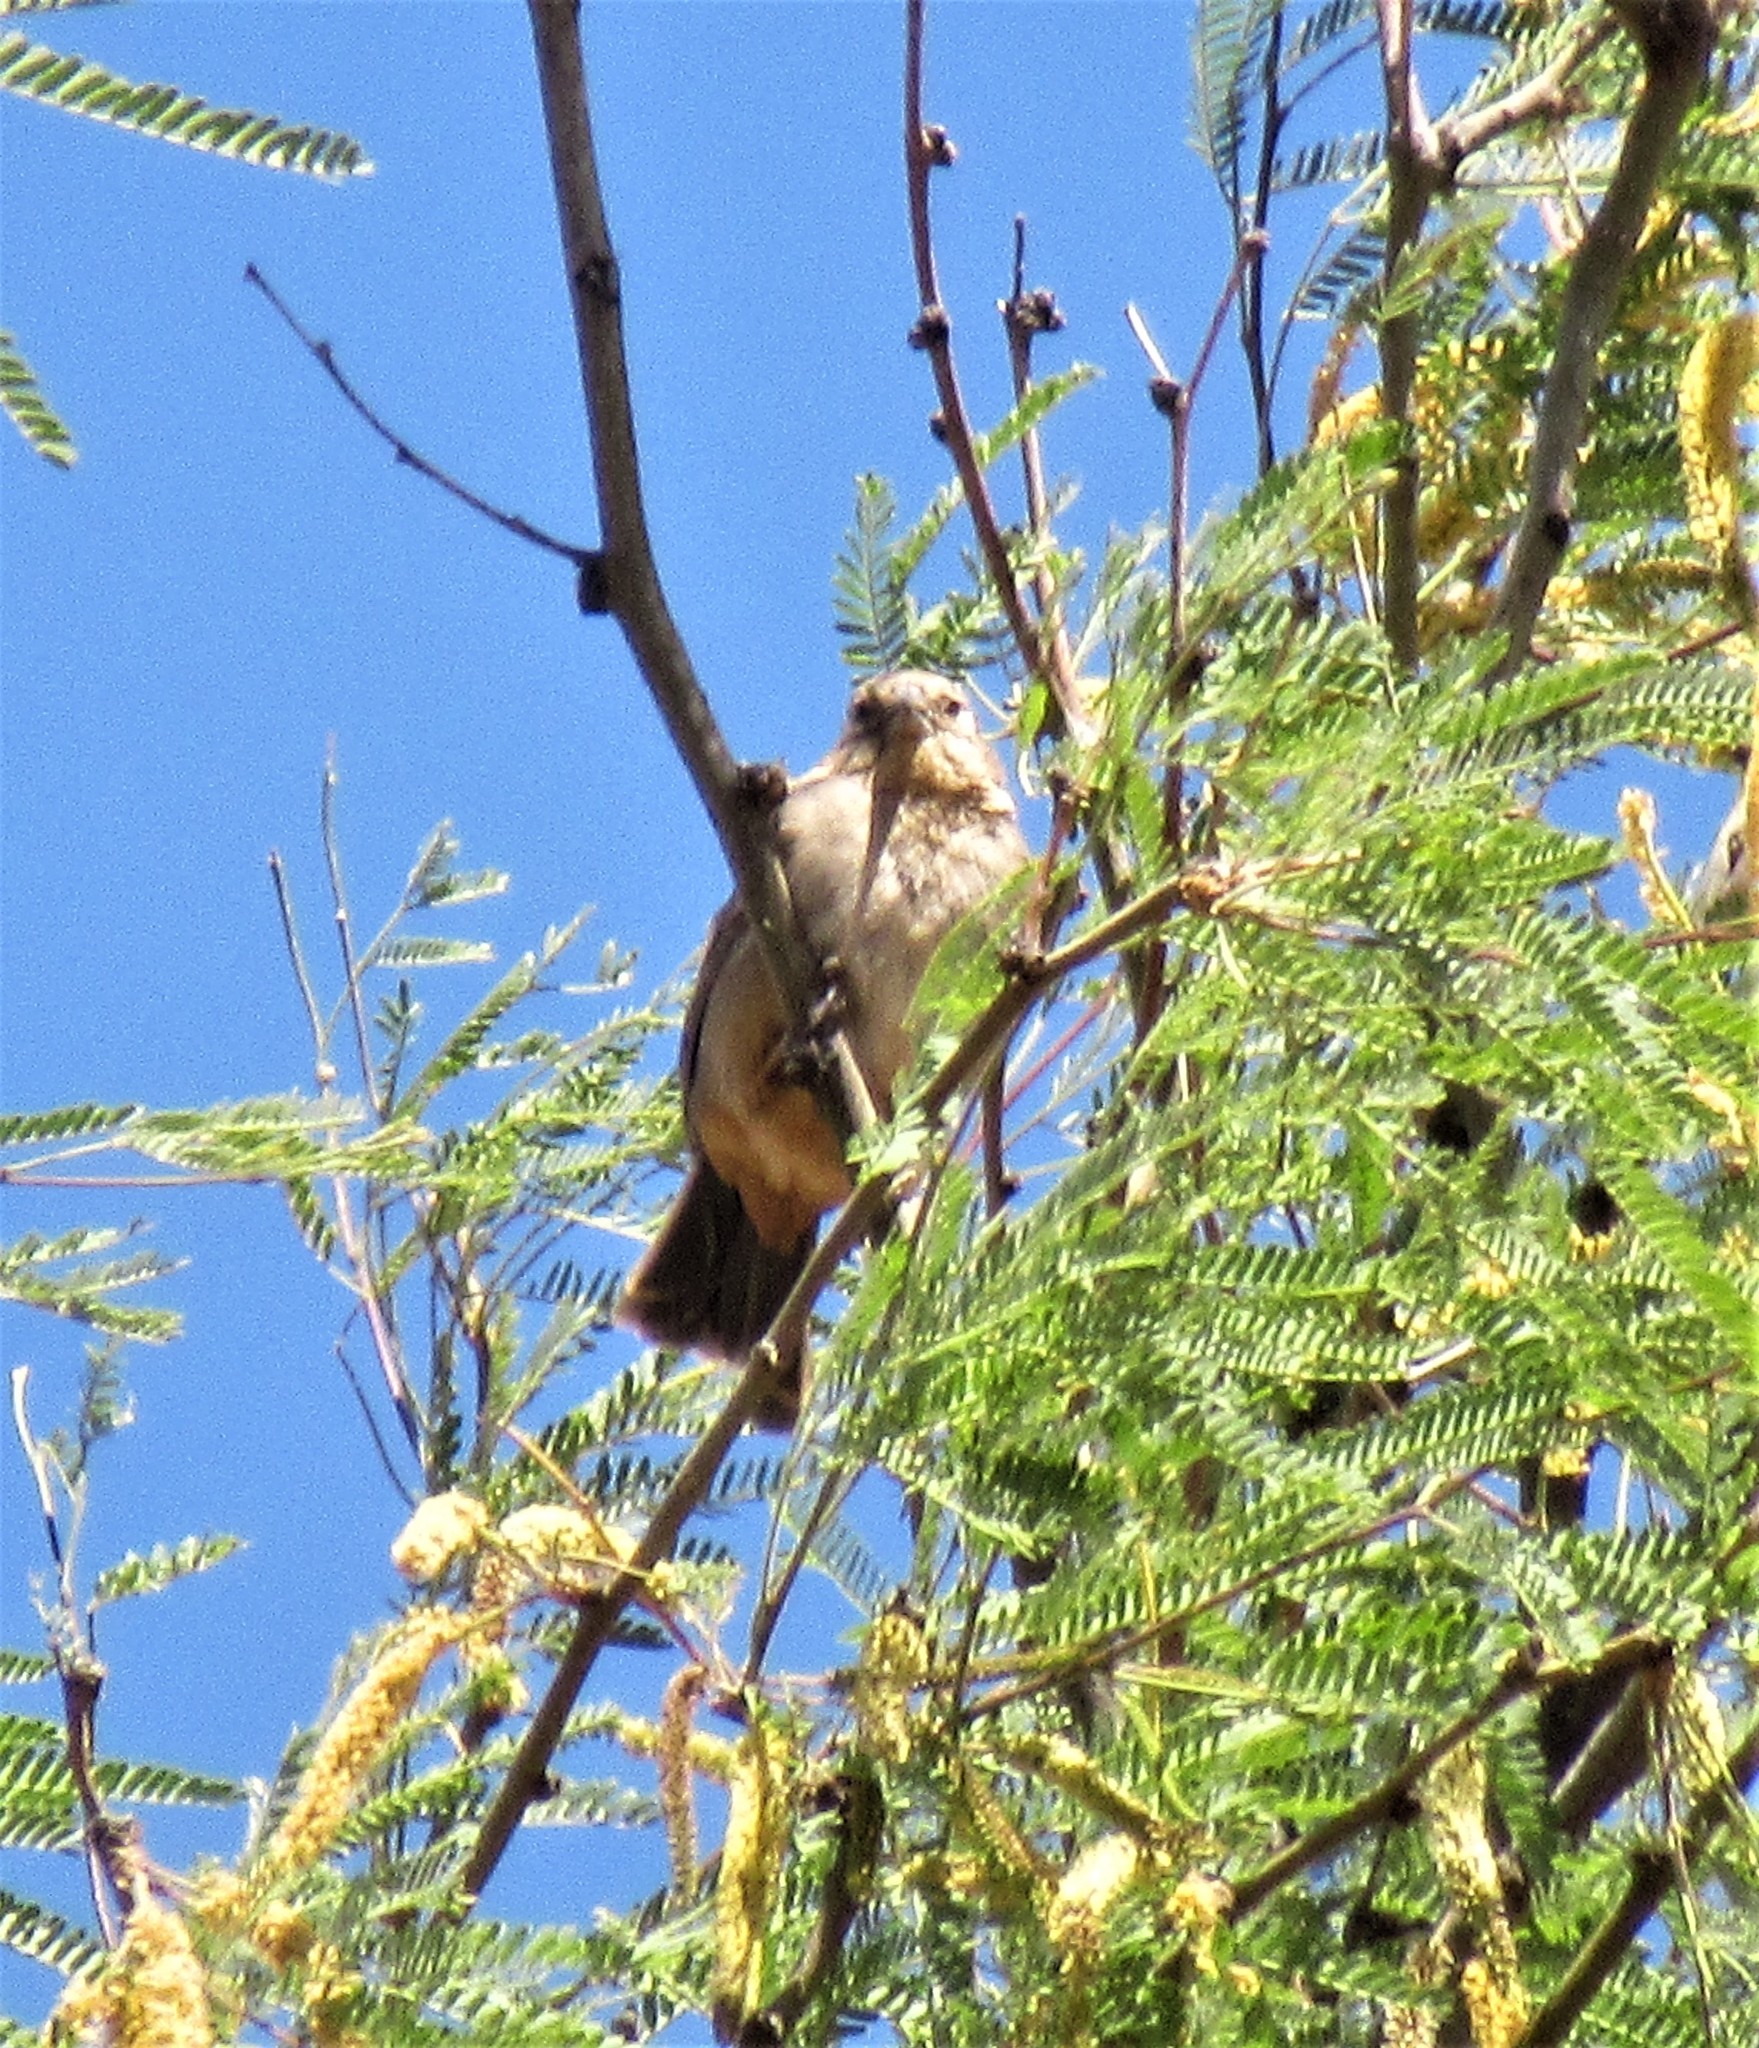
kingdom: Animalia
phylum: Chordata
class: Aves
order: Passeriformes
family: Passerellidae
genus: Melozone
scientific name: Melozone fusca
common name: Canyon towhee
